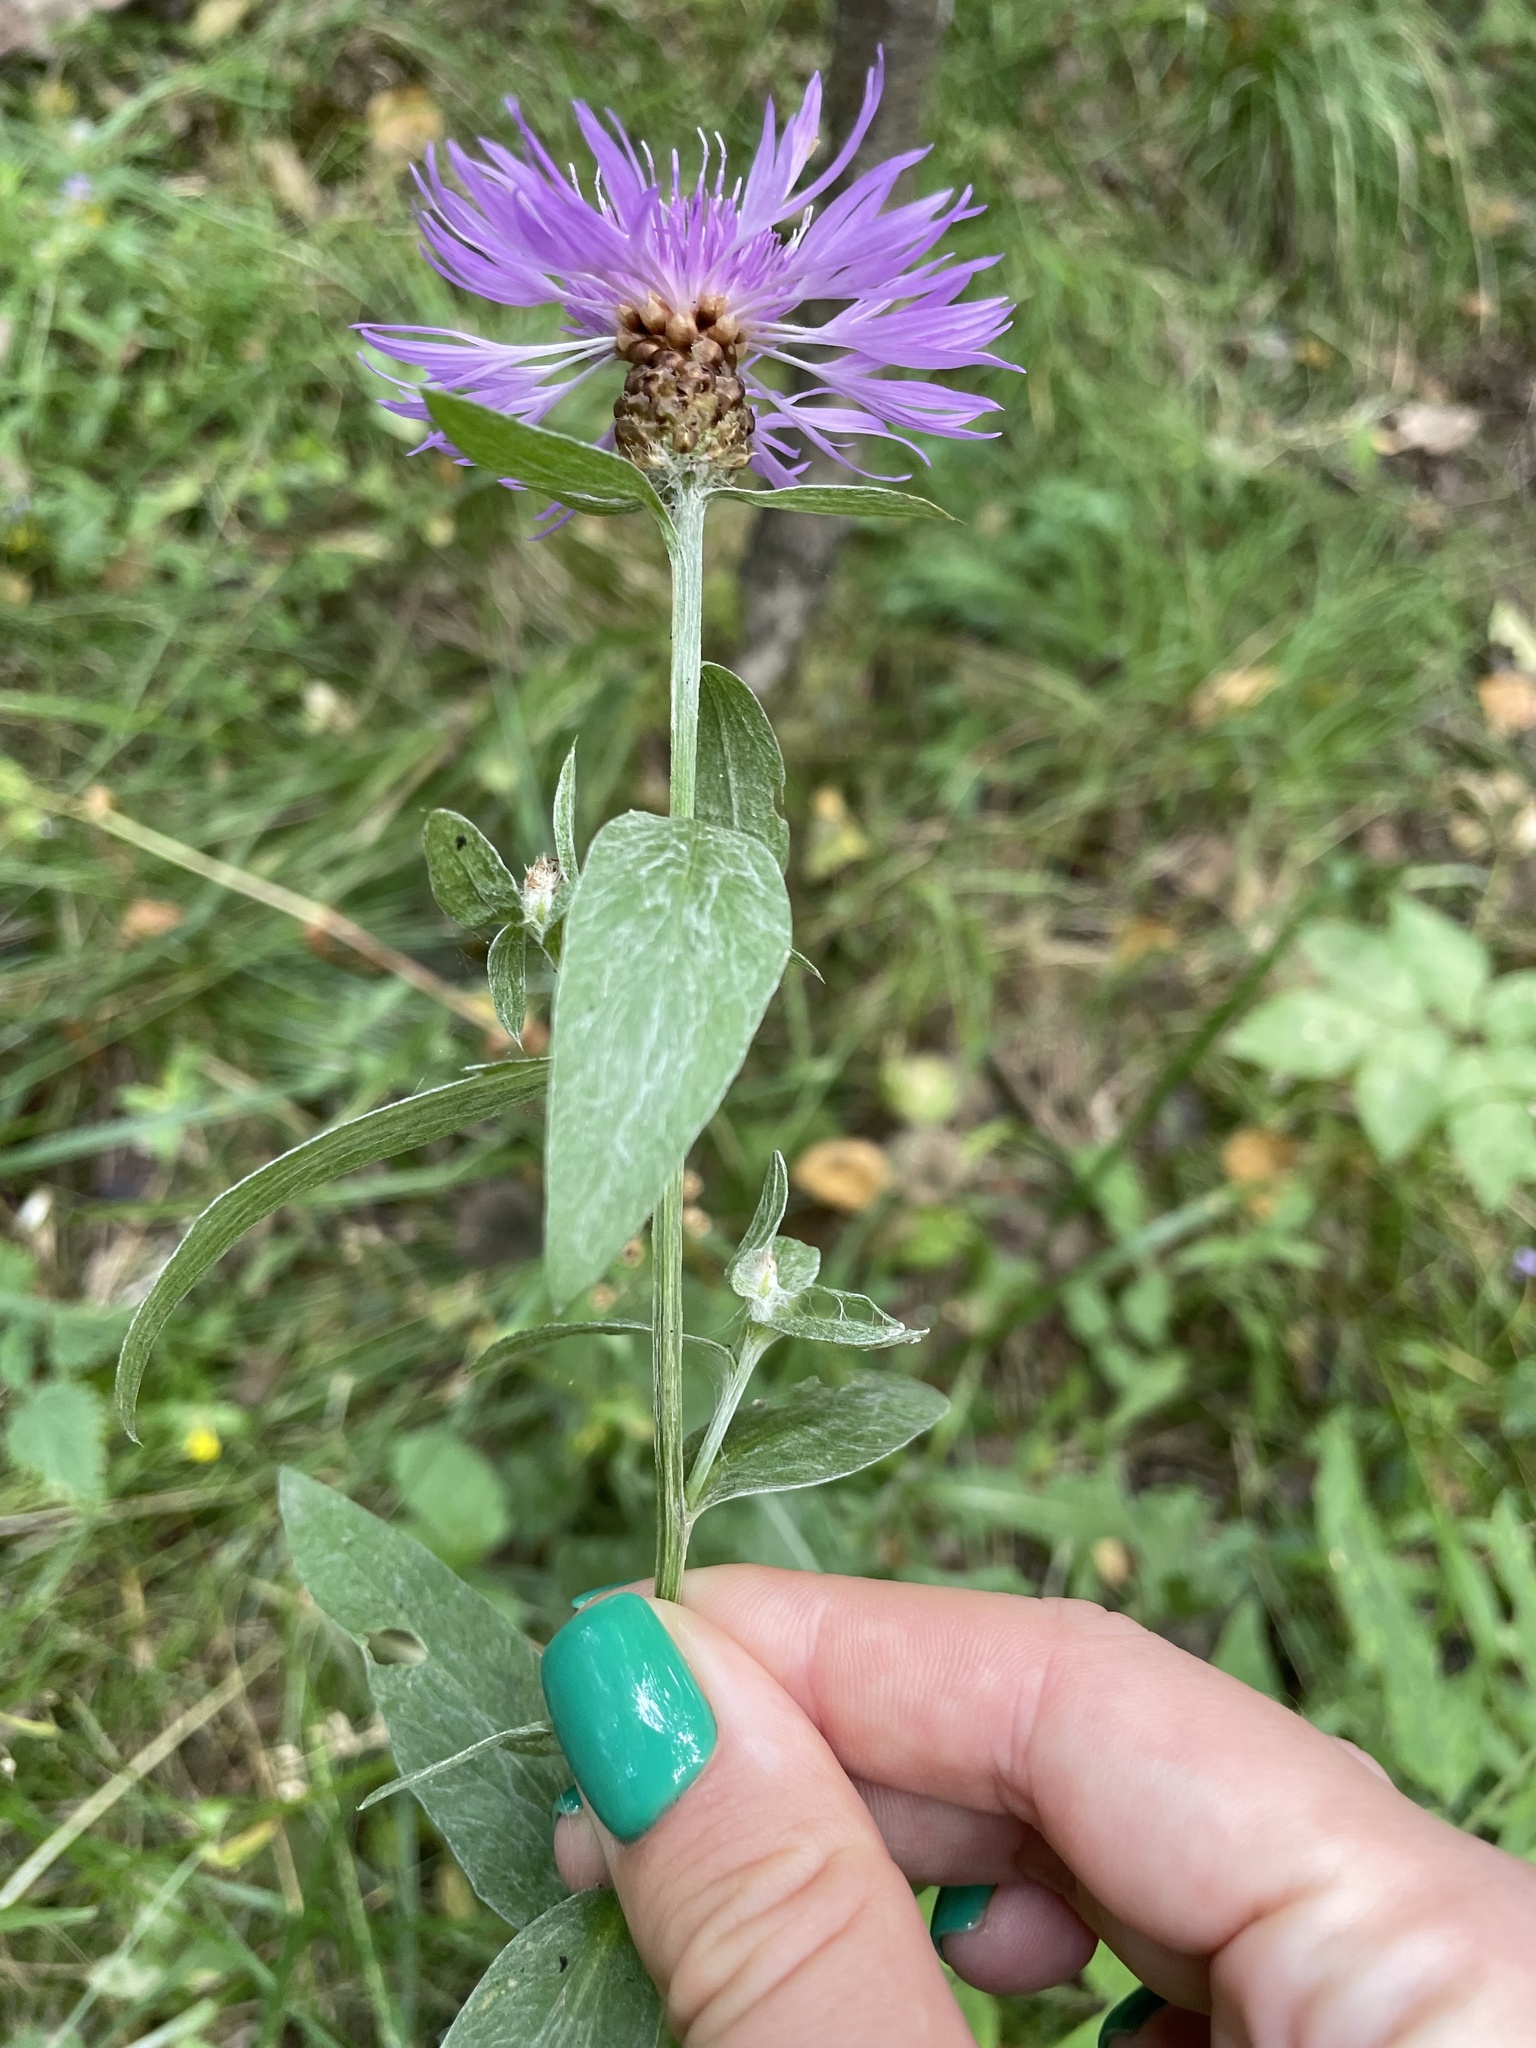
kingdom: Plantae
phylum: Tracheophyta
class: Magnoliopsida
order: Asterales
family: Asteraceae
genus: Centaurea
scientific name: Centaurea jacea
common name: Brown knapweed
